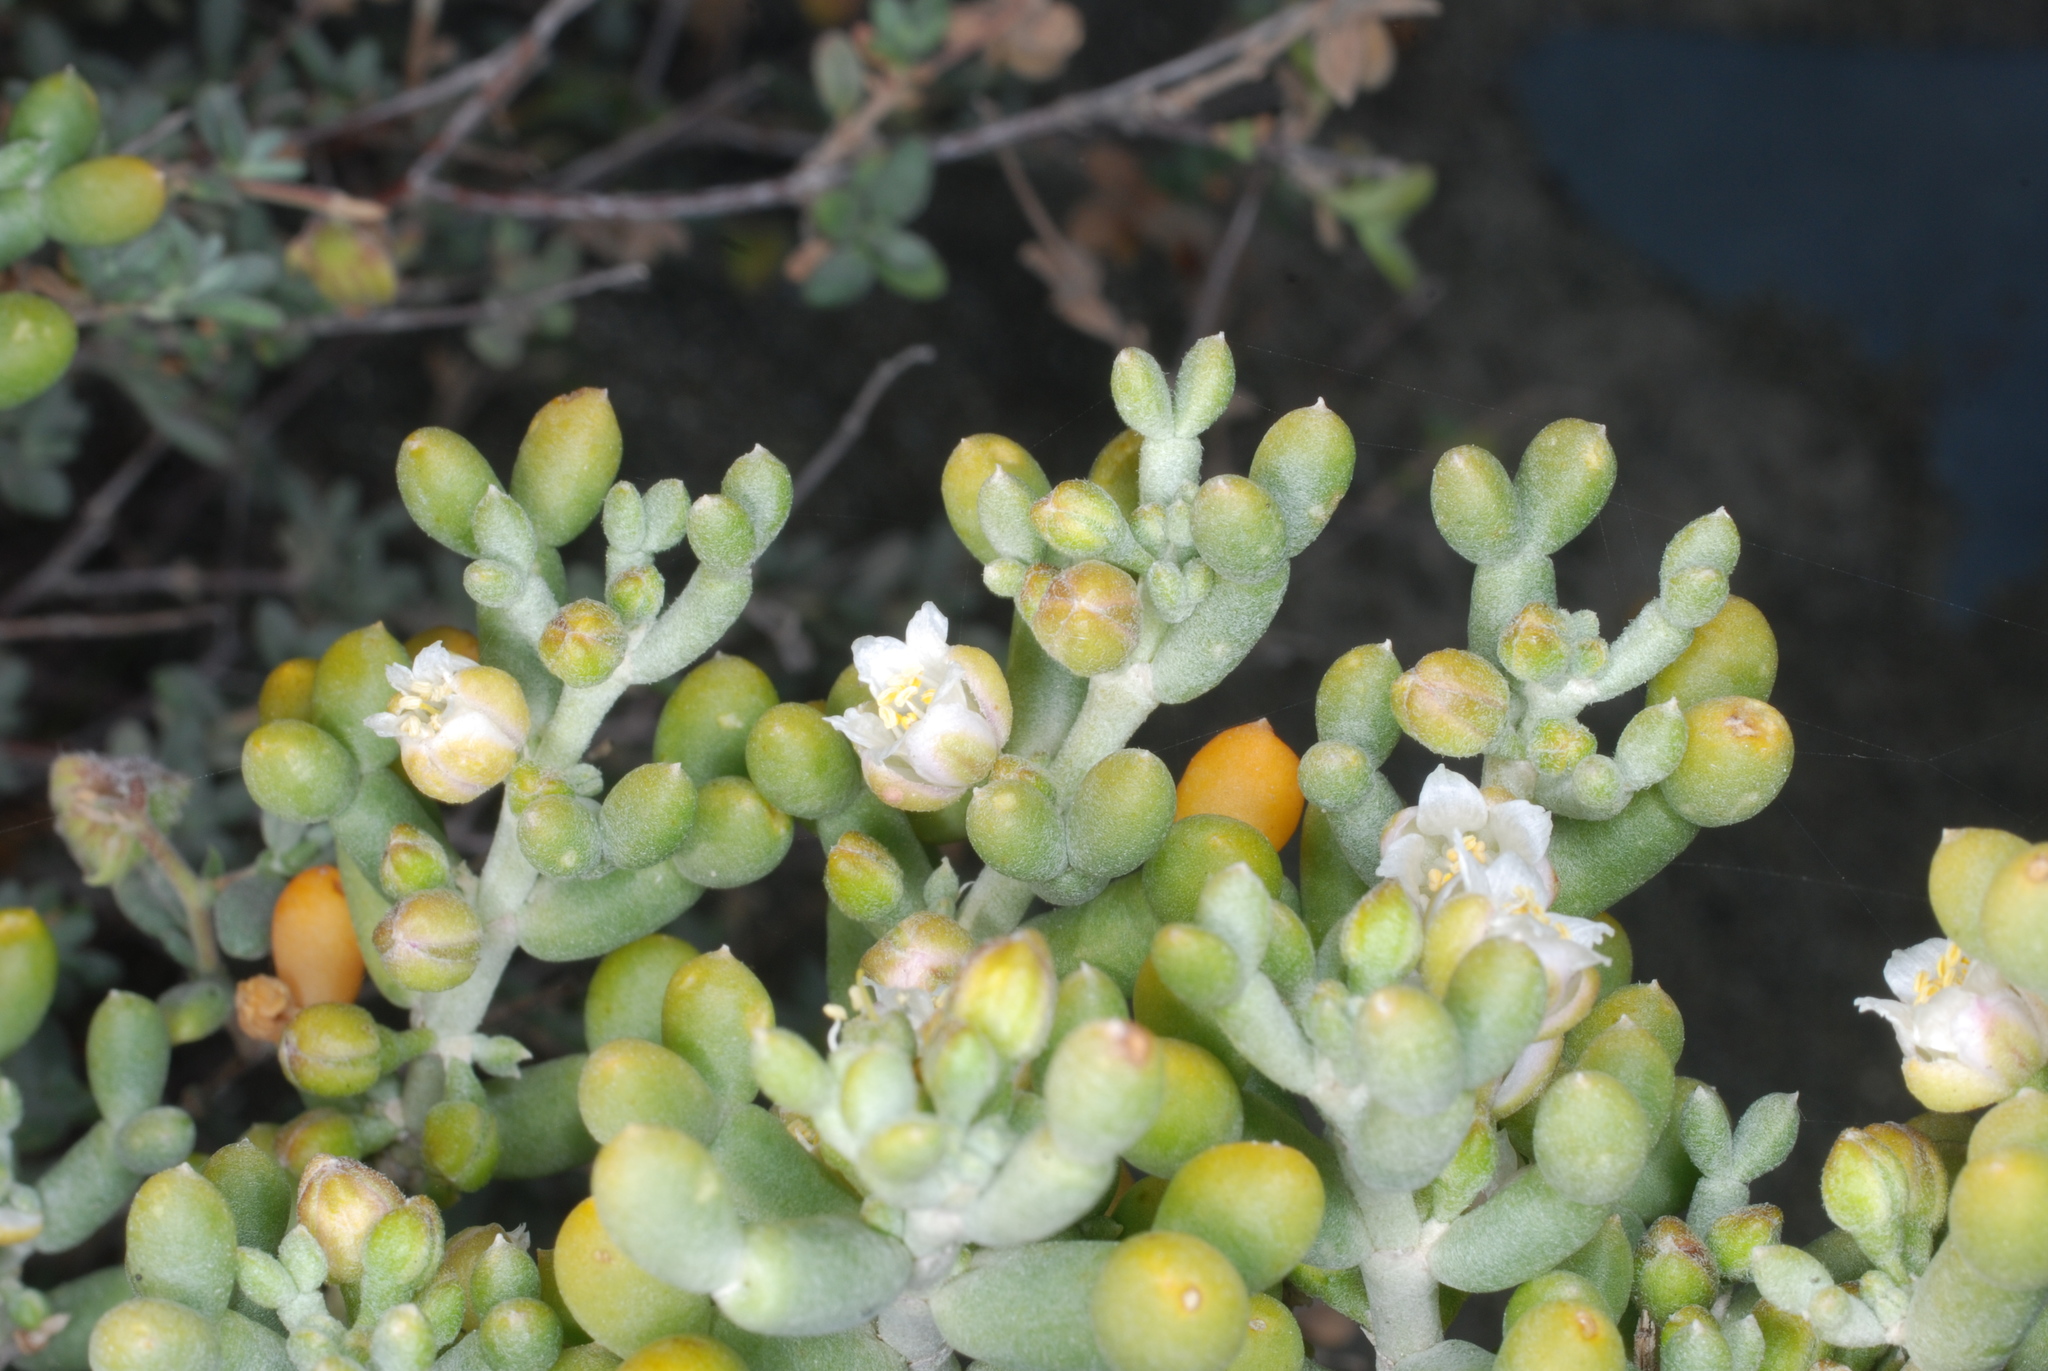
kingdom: Plantae
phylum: Tracheophyta
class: Magnoliopsida
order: Zygophyllales
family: Zygophyllaceae
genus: Tetraena
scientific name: Tetraena alba
